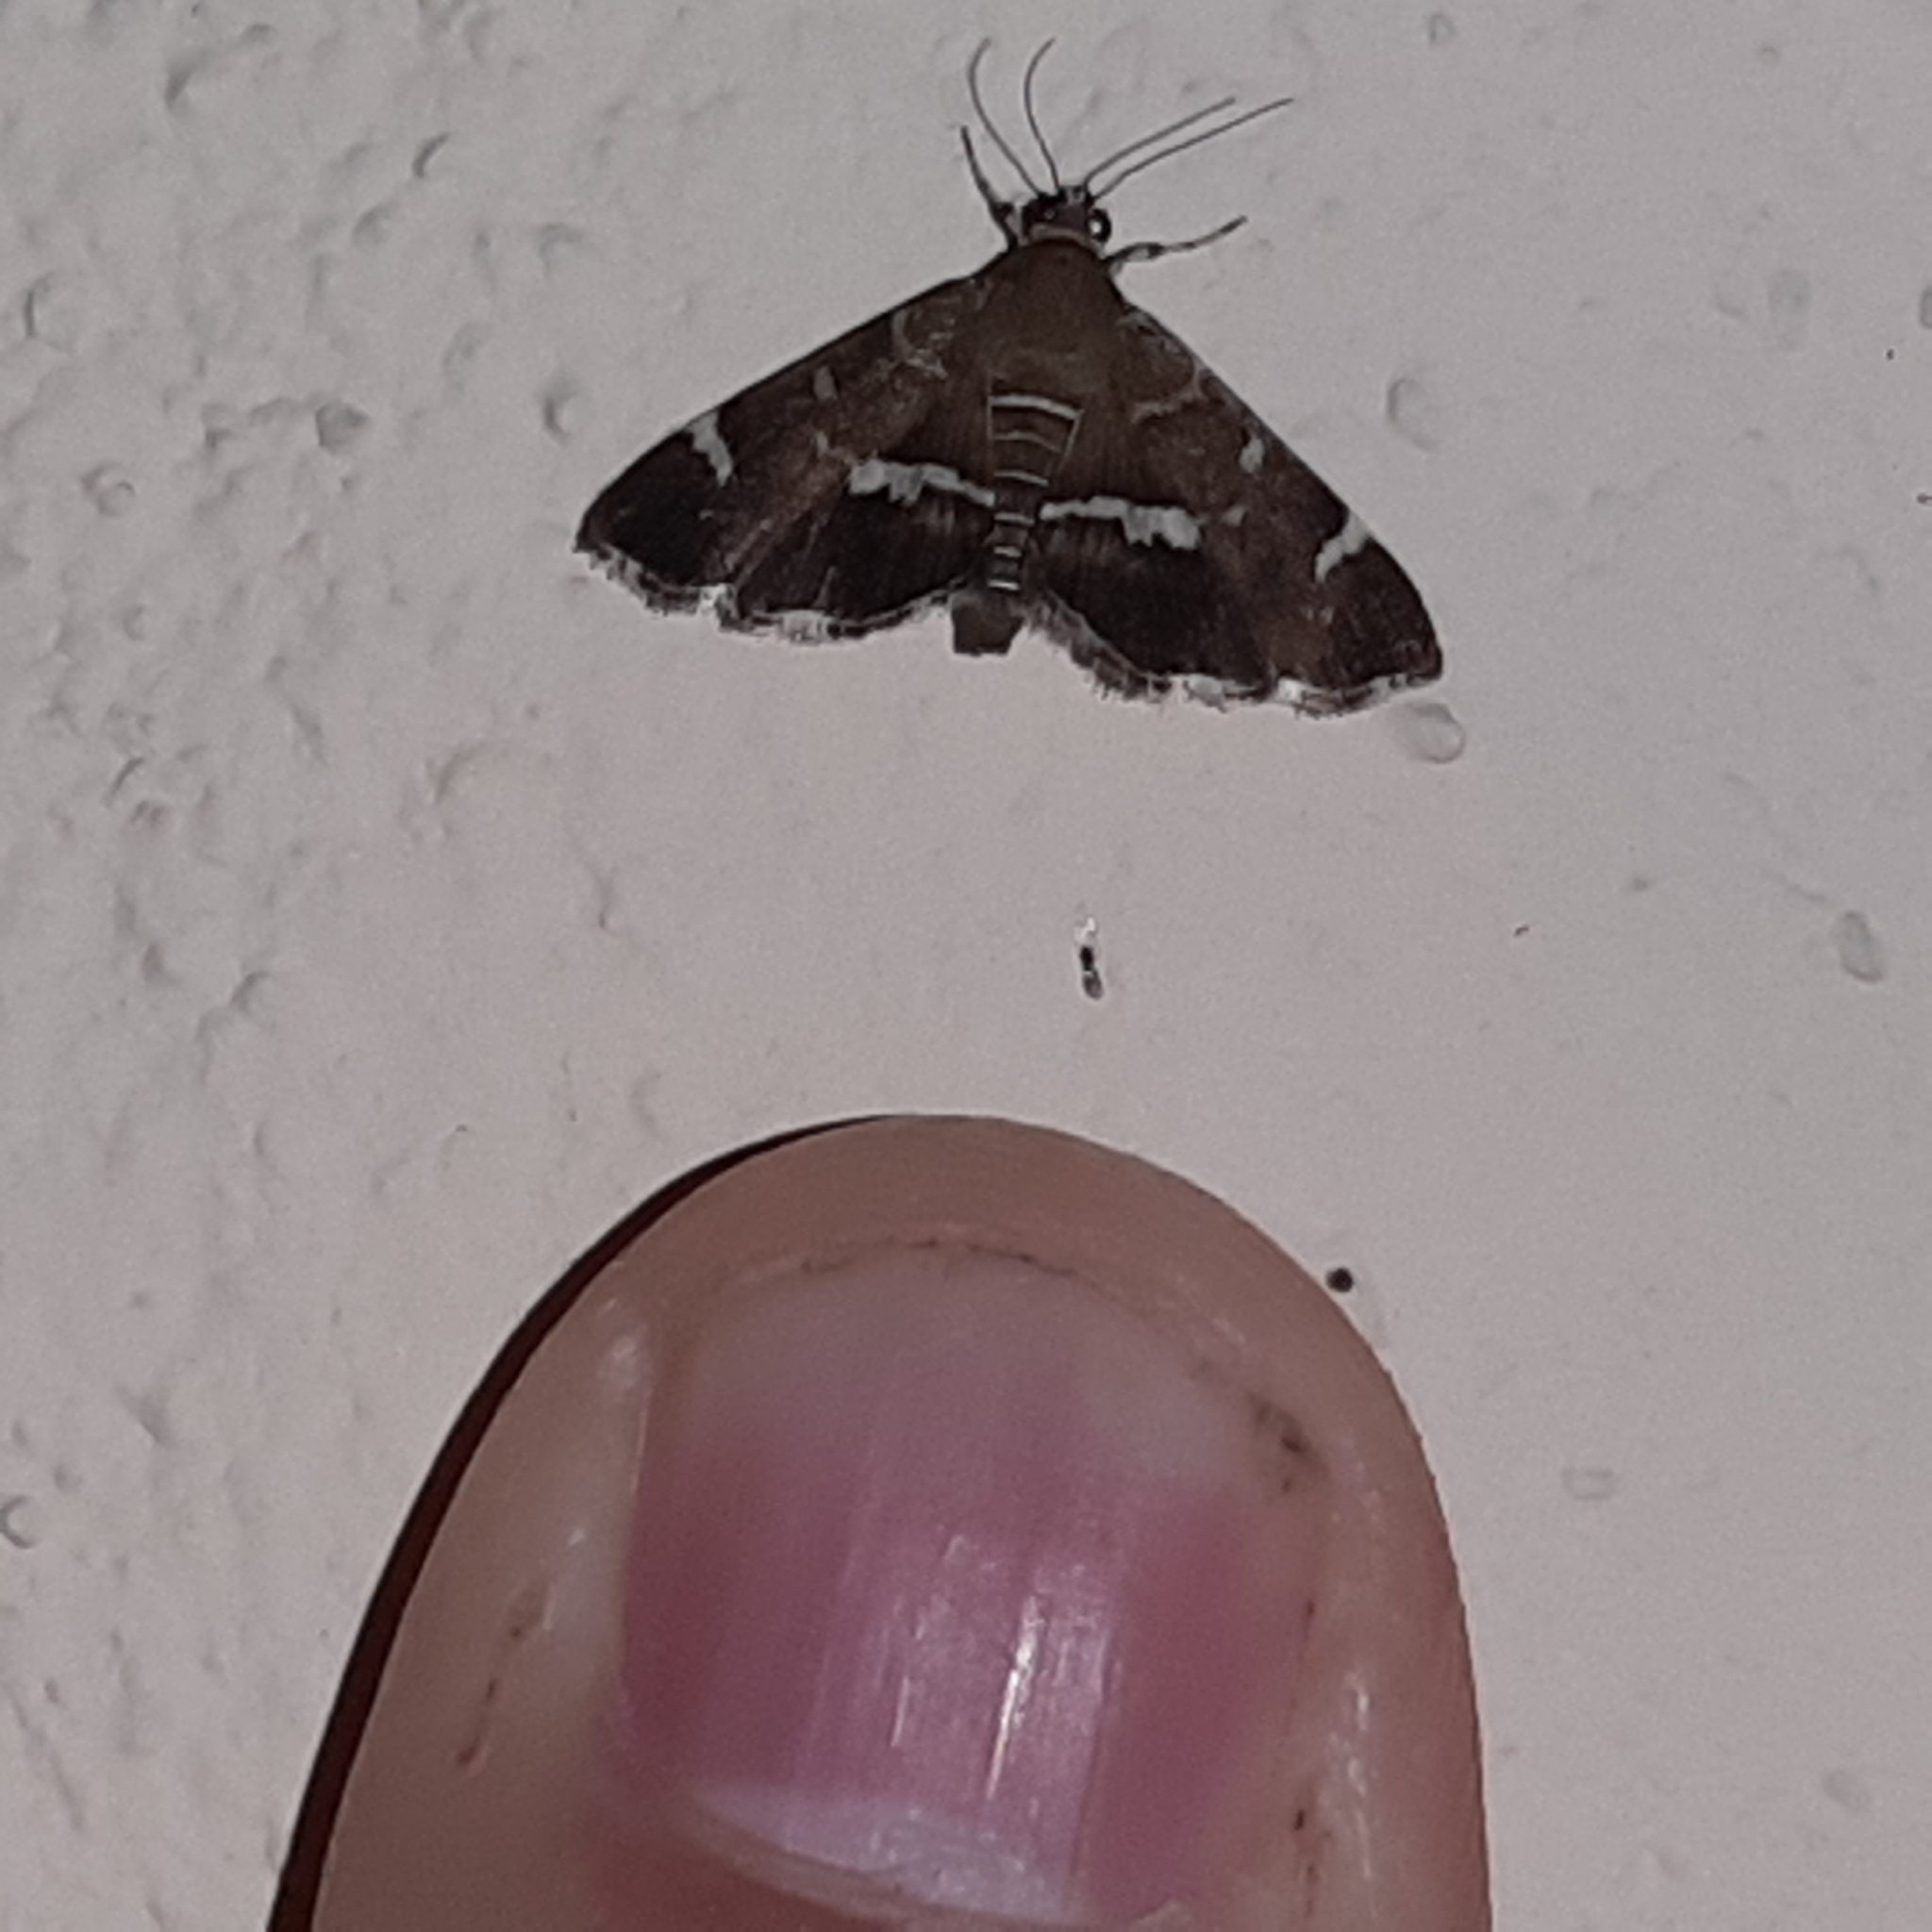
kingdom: Animalia
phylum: Arthropoda
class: Insecta
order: Lepidoptera
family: Crambidae
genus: Hymenia
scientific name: Hymenia perspectalis
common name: Spotted beet webworm
